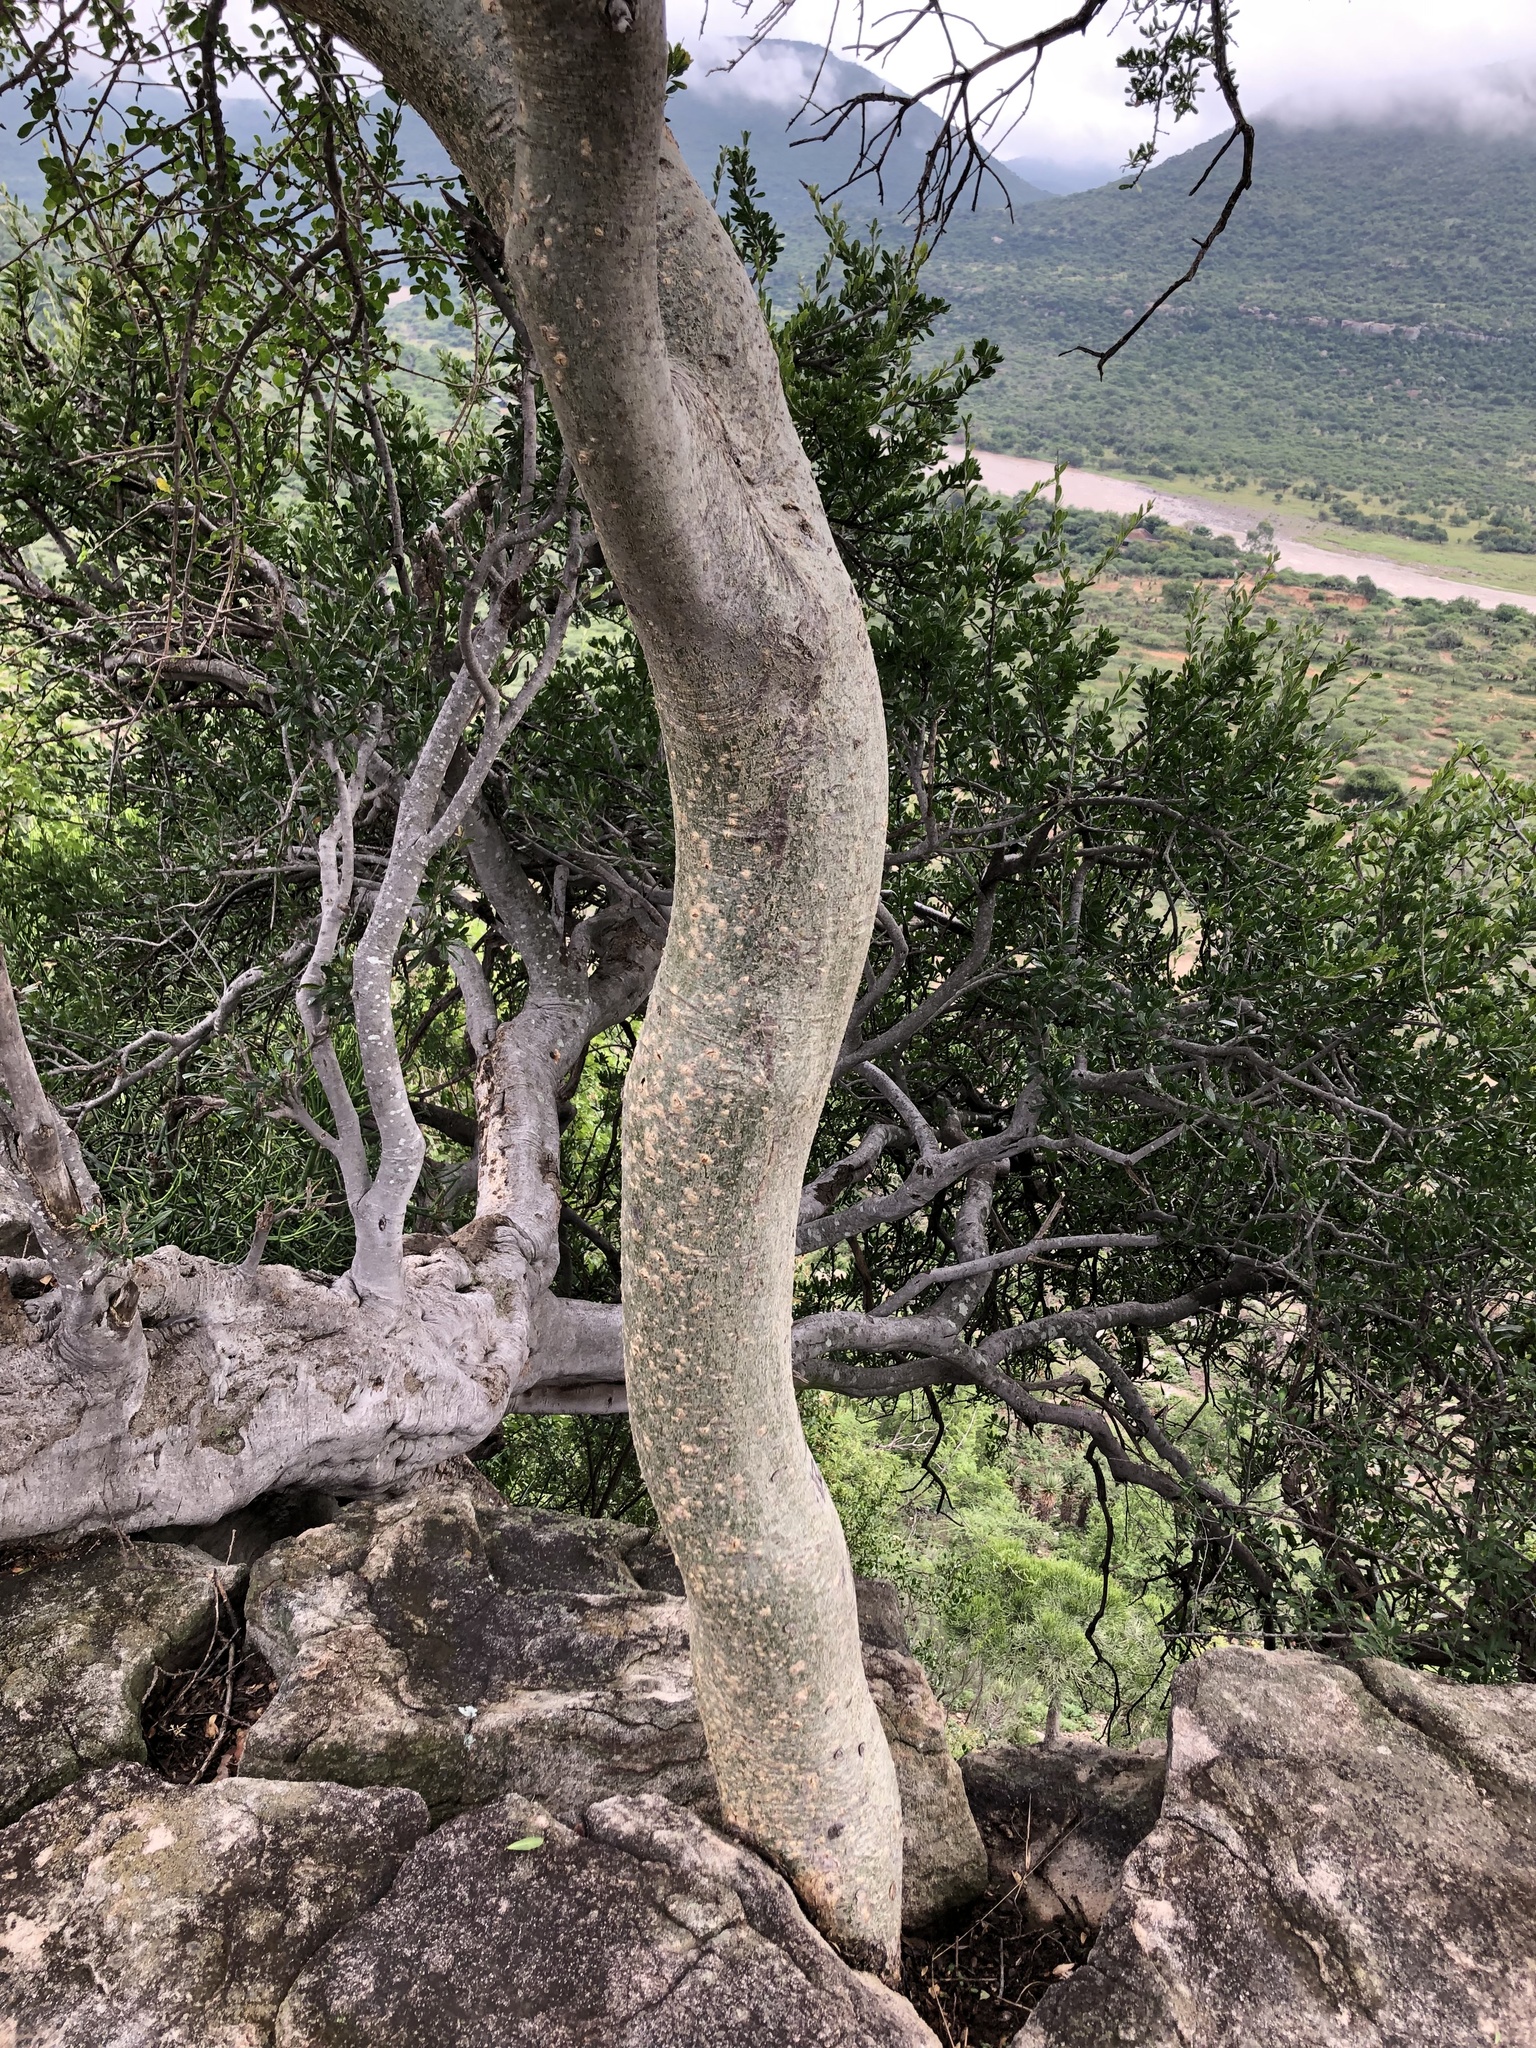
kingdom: Plantae
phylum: Tracheophyta
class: Magnoliopsida
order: Sapindales
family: Burseraceae
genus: Commiphora
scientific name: Commiphora africana
